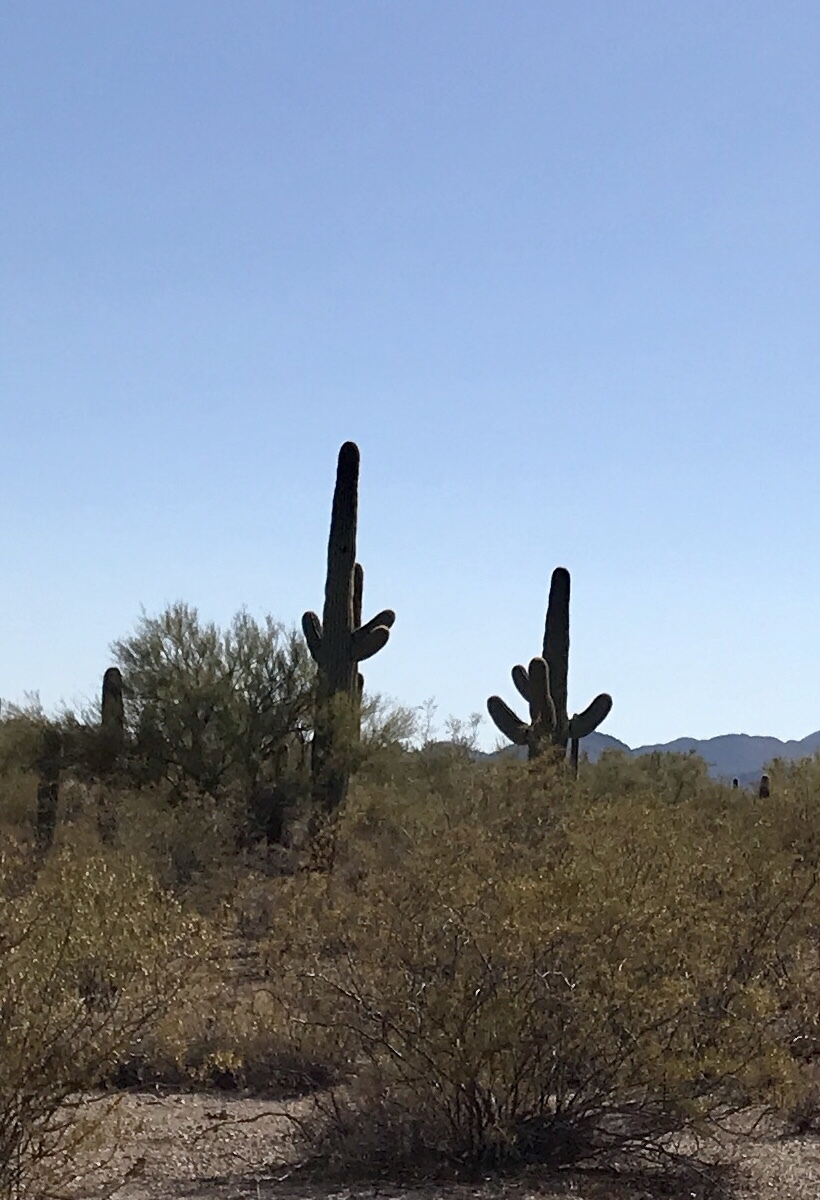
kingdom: Plantae
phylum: Tracheophyta
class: Magnoliopsida
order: Caryophyllales
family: Cactaceae
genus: Carnegiea
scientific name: Carnegiea gigantea
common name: Saguaro
